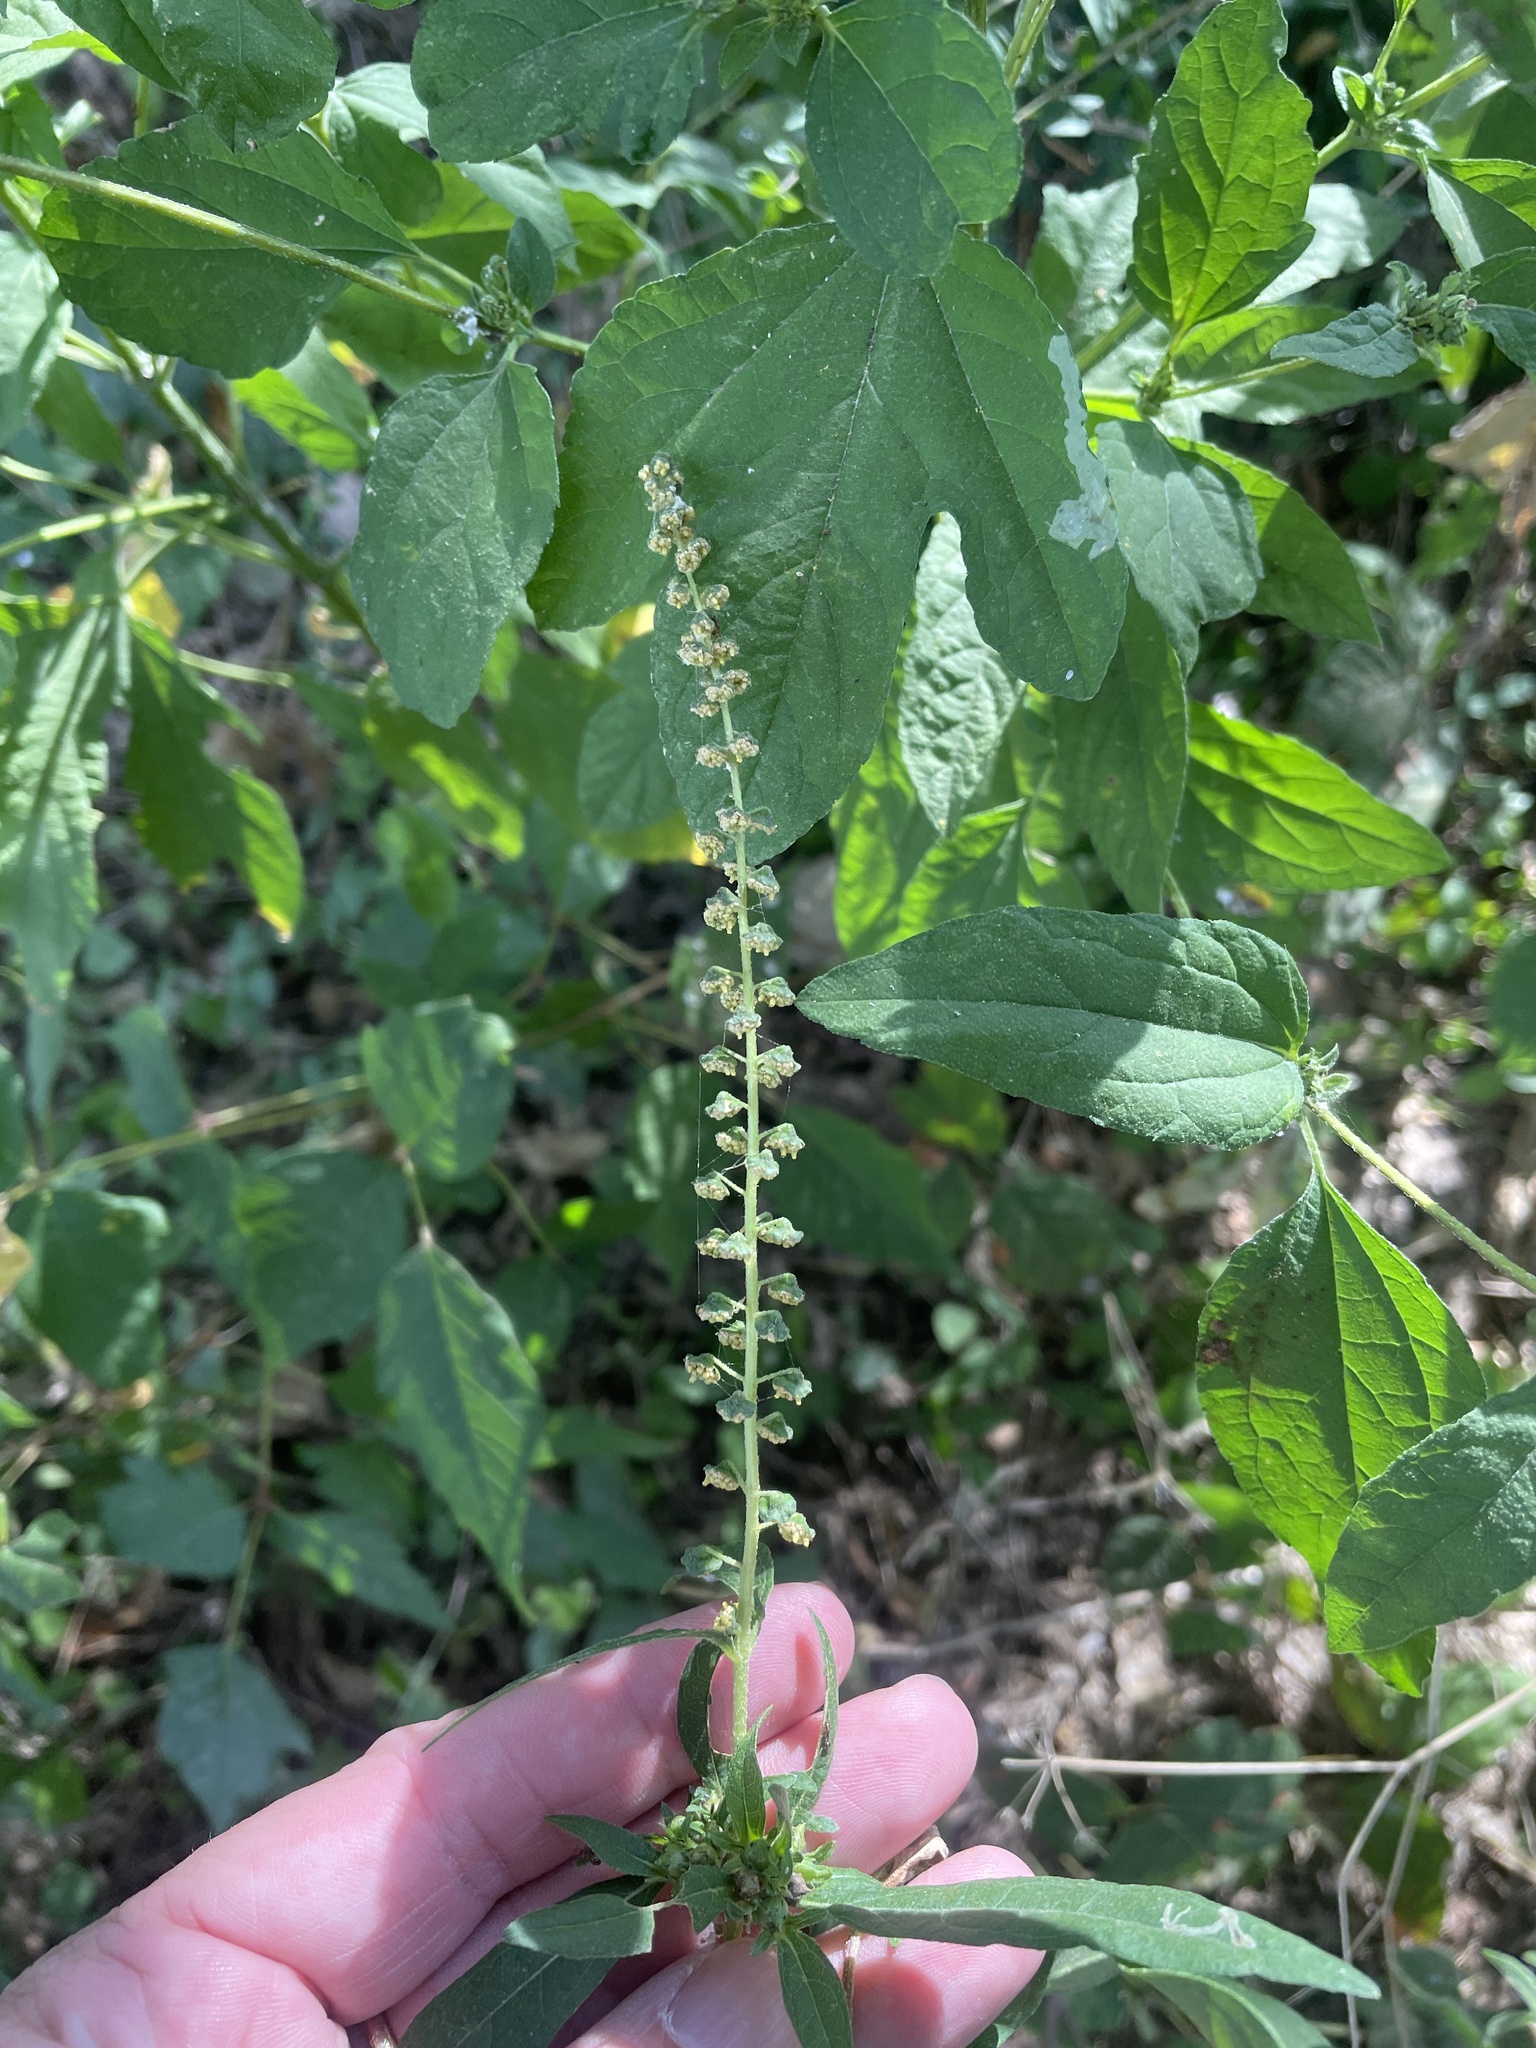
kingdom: Plantae
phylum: Tracheophyta
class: Magnoliopsida
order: Asterales
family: Asteraceae
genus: Ambrosia
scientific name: Ambrosia trifida
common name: Giant ragweed
